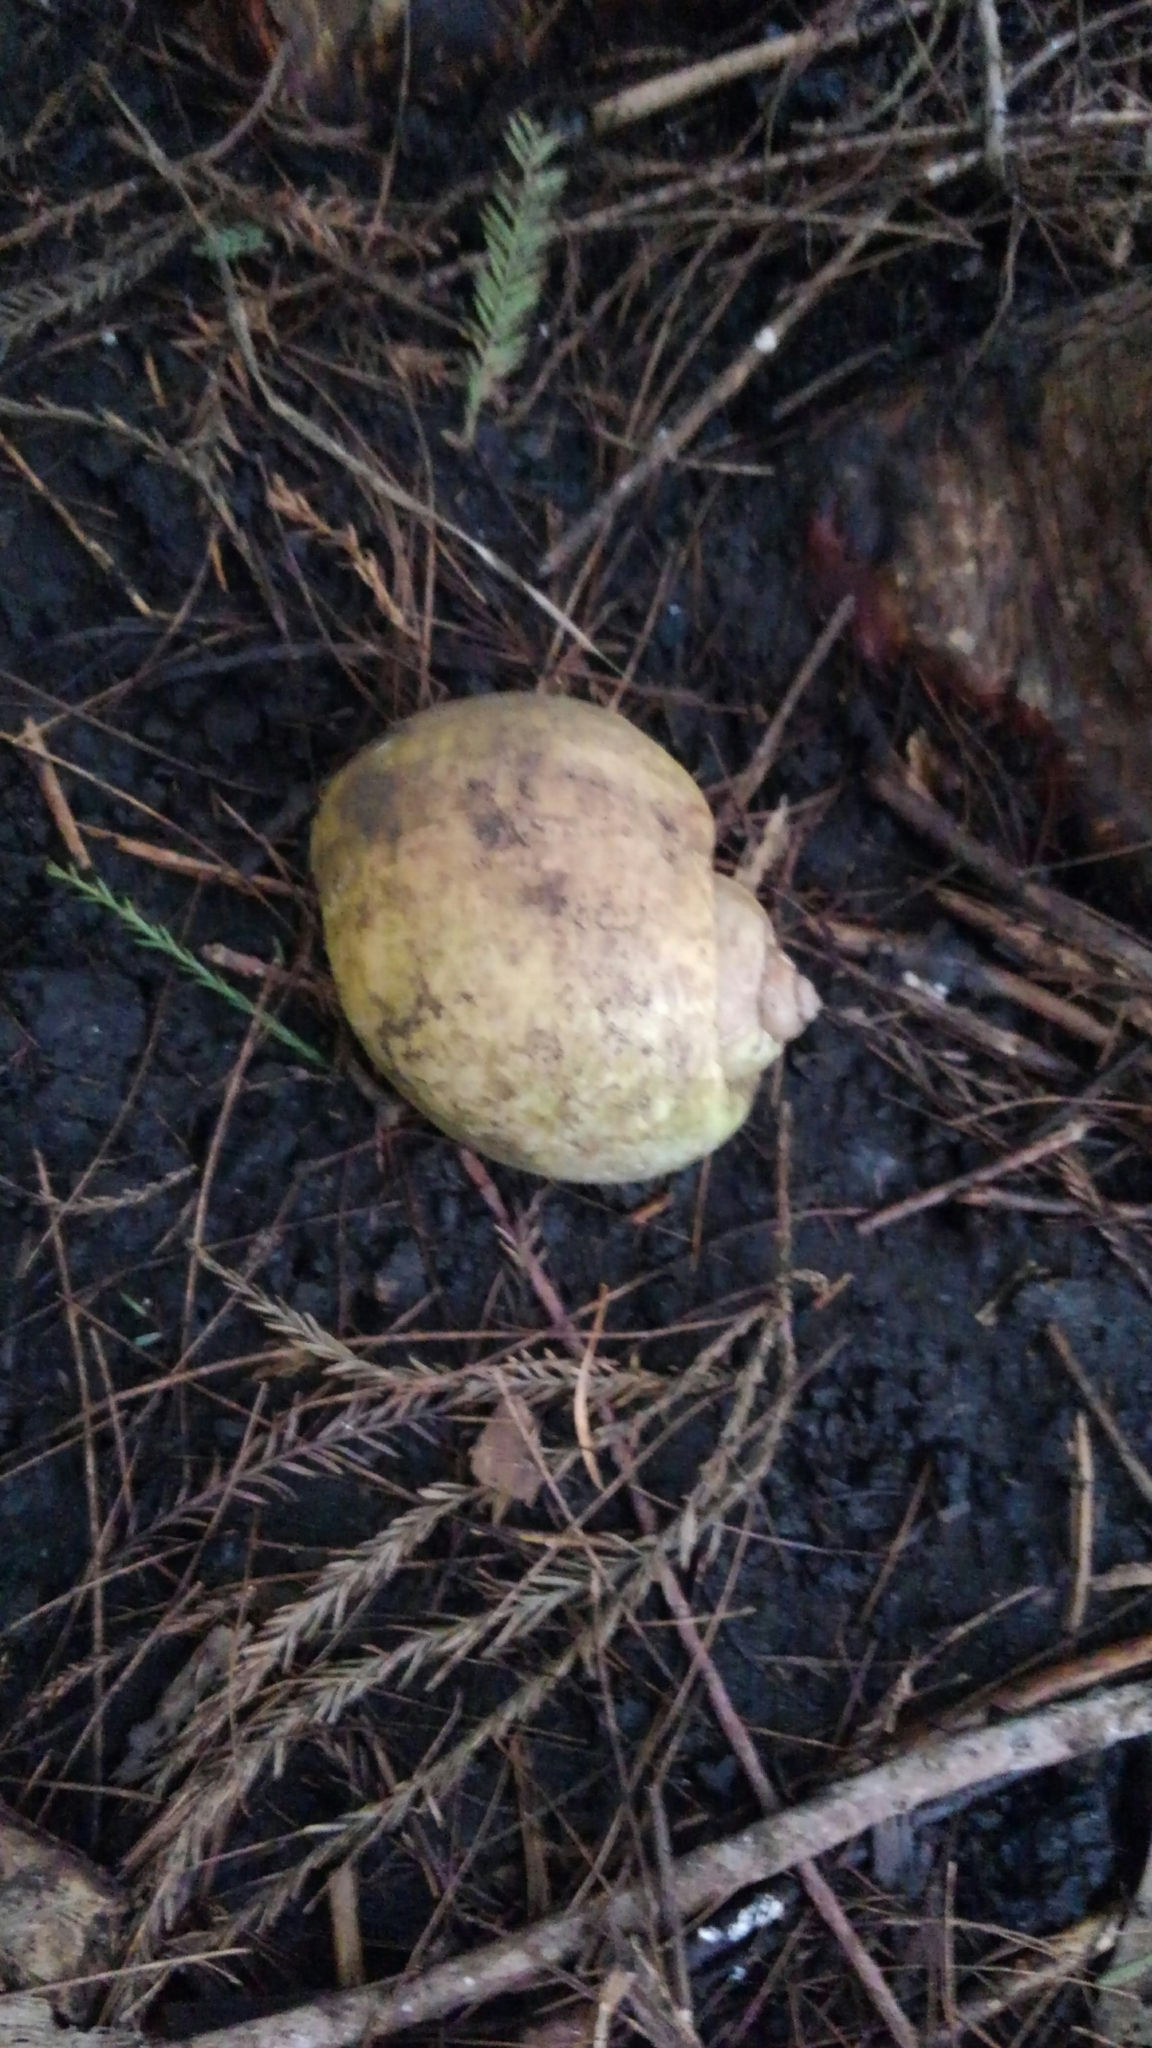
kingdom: Animalia
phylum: Mollusca
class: Gastropoda
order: Architaenioglossa
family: Ampullariidae
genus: Pomacea
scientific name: Pomacea maculata
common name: Giant applesnail
